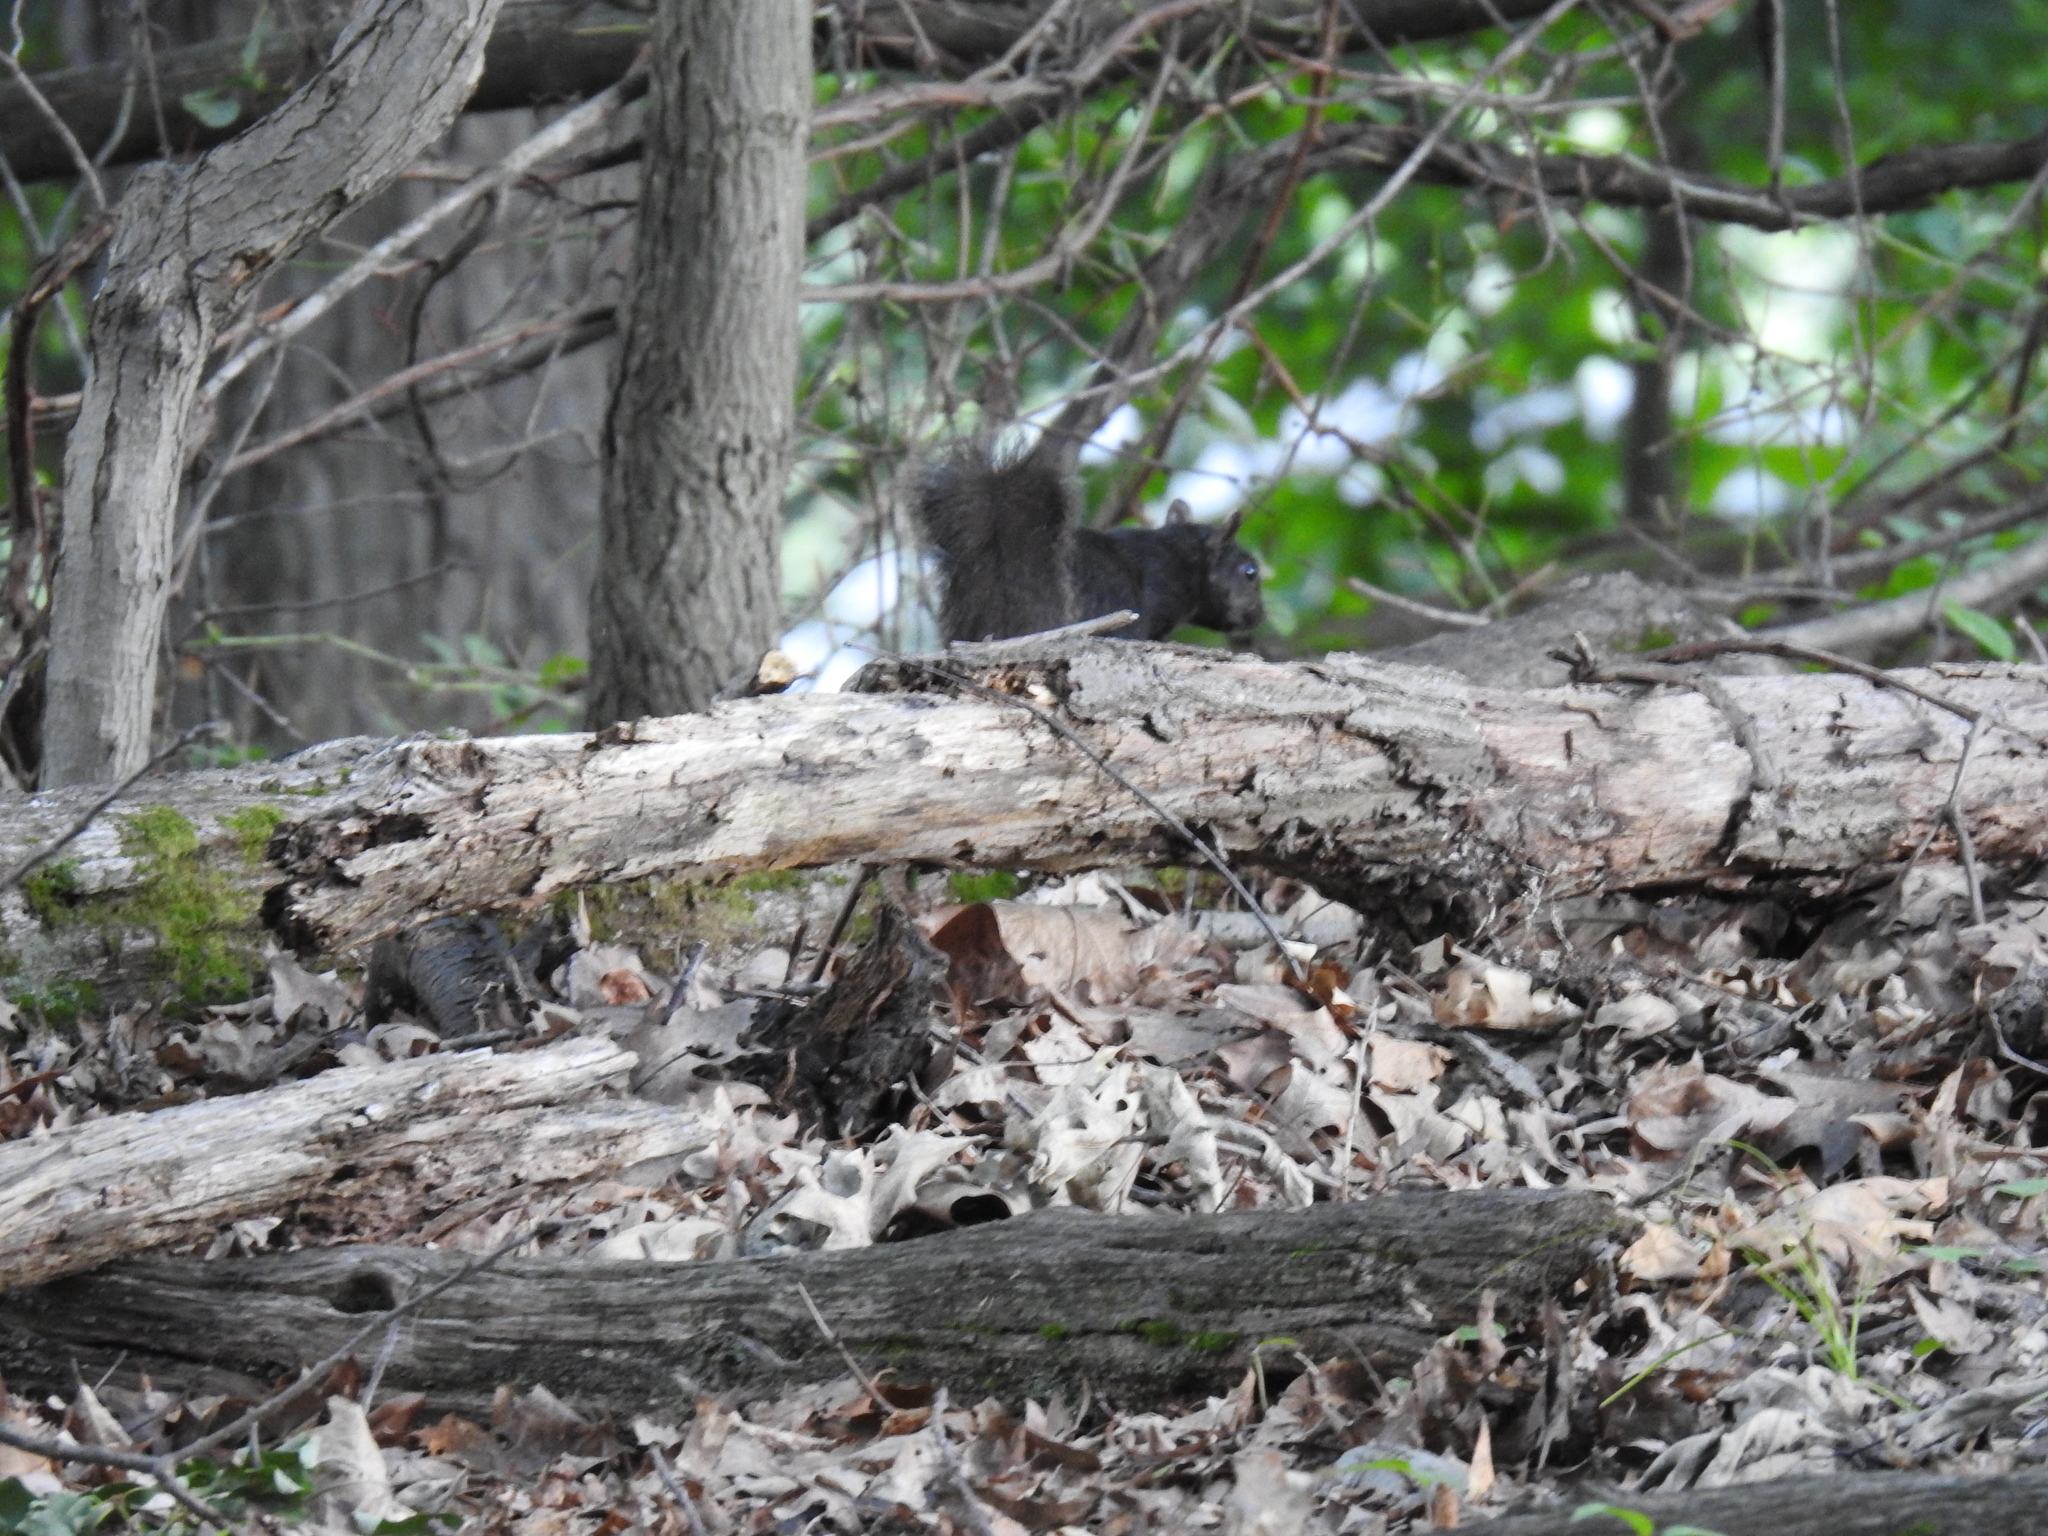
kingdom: Animalia
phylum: Chordata
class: Mammalia
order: Rodentia
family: Sciuridae
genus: Sciurus
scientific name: Sciurus carolinensis
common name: Eastern gray squirrel
